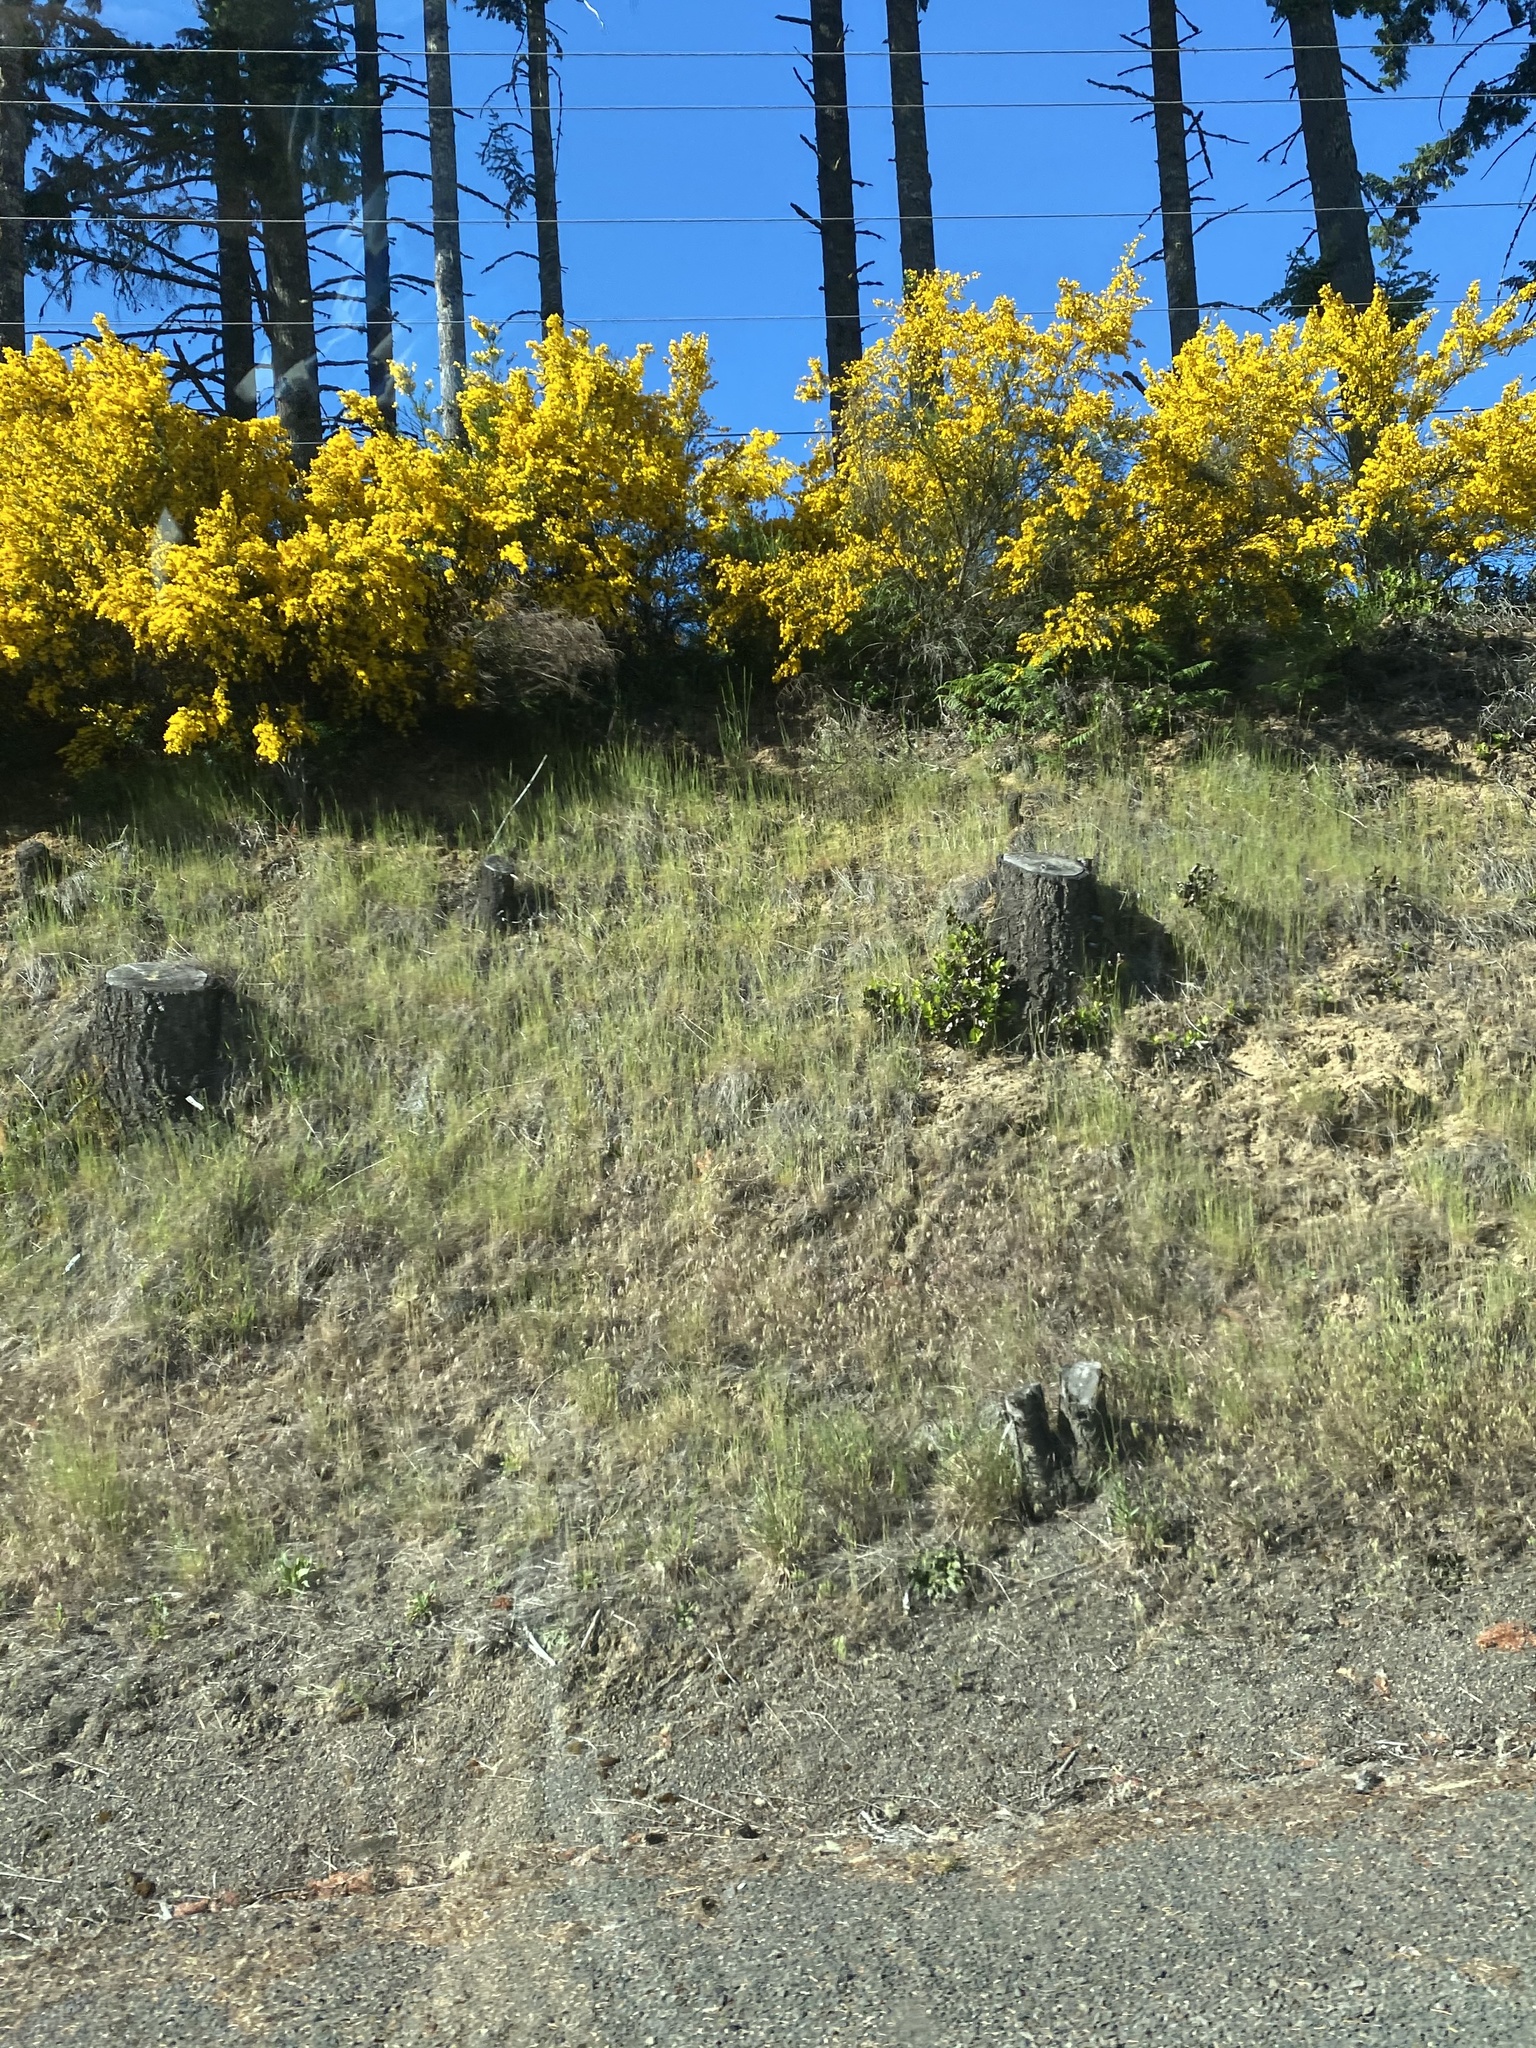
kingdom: Plantae
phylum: Tracheophyta
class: Magnoliopsida
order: Fabales
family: Fabaceae
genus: Cytisus
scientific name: Cytisus scoparius
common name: Scotch broom
